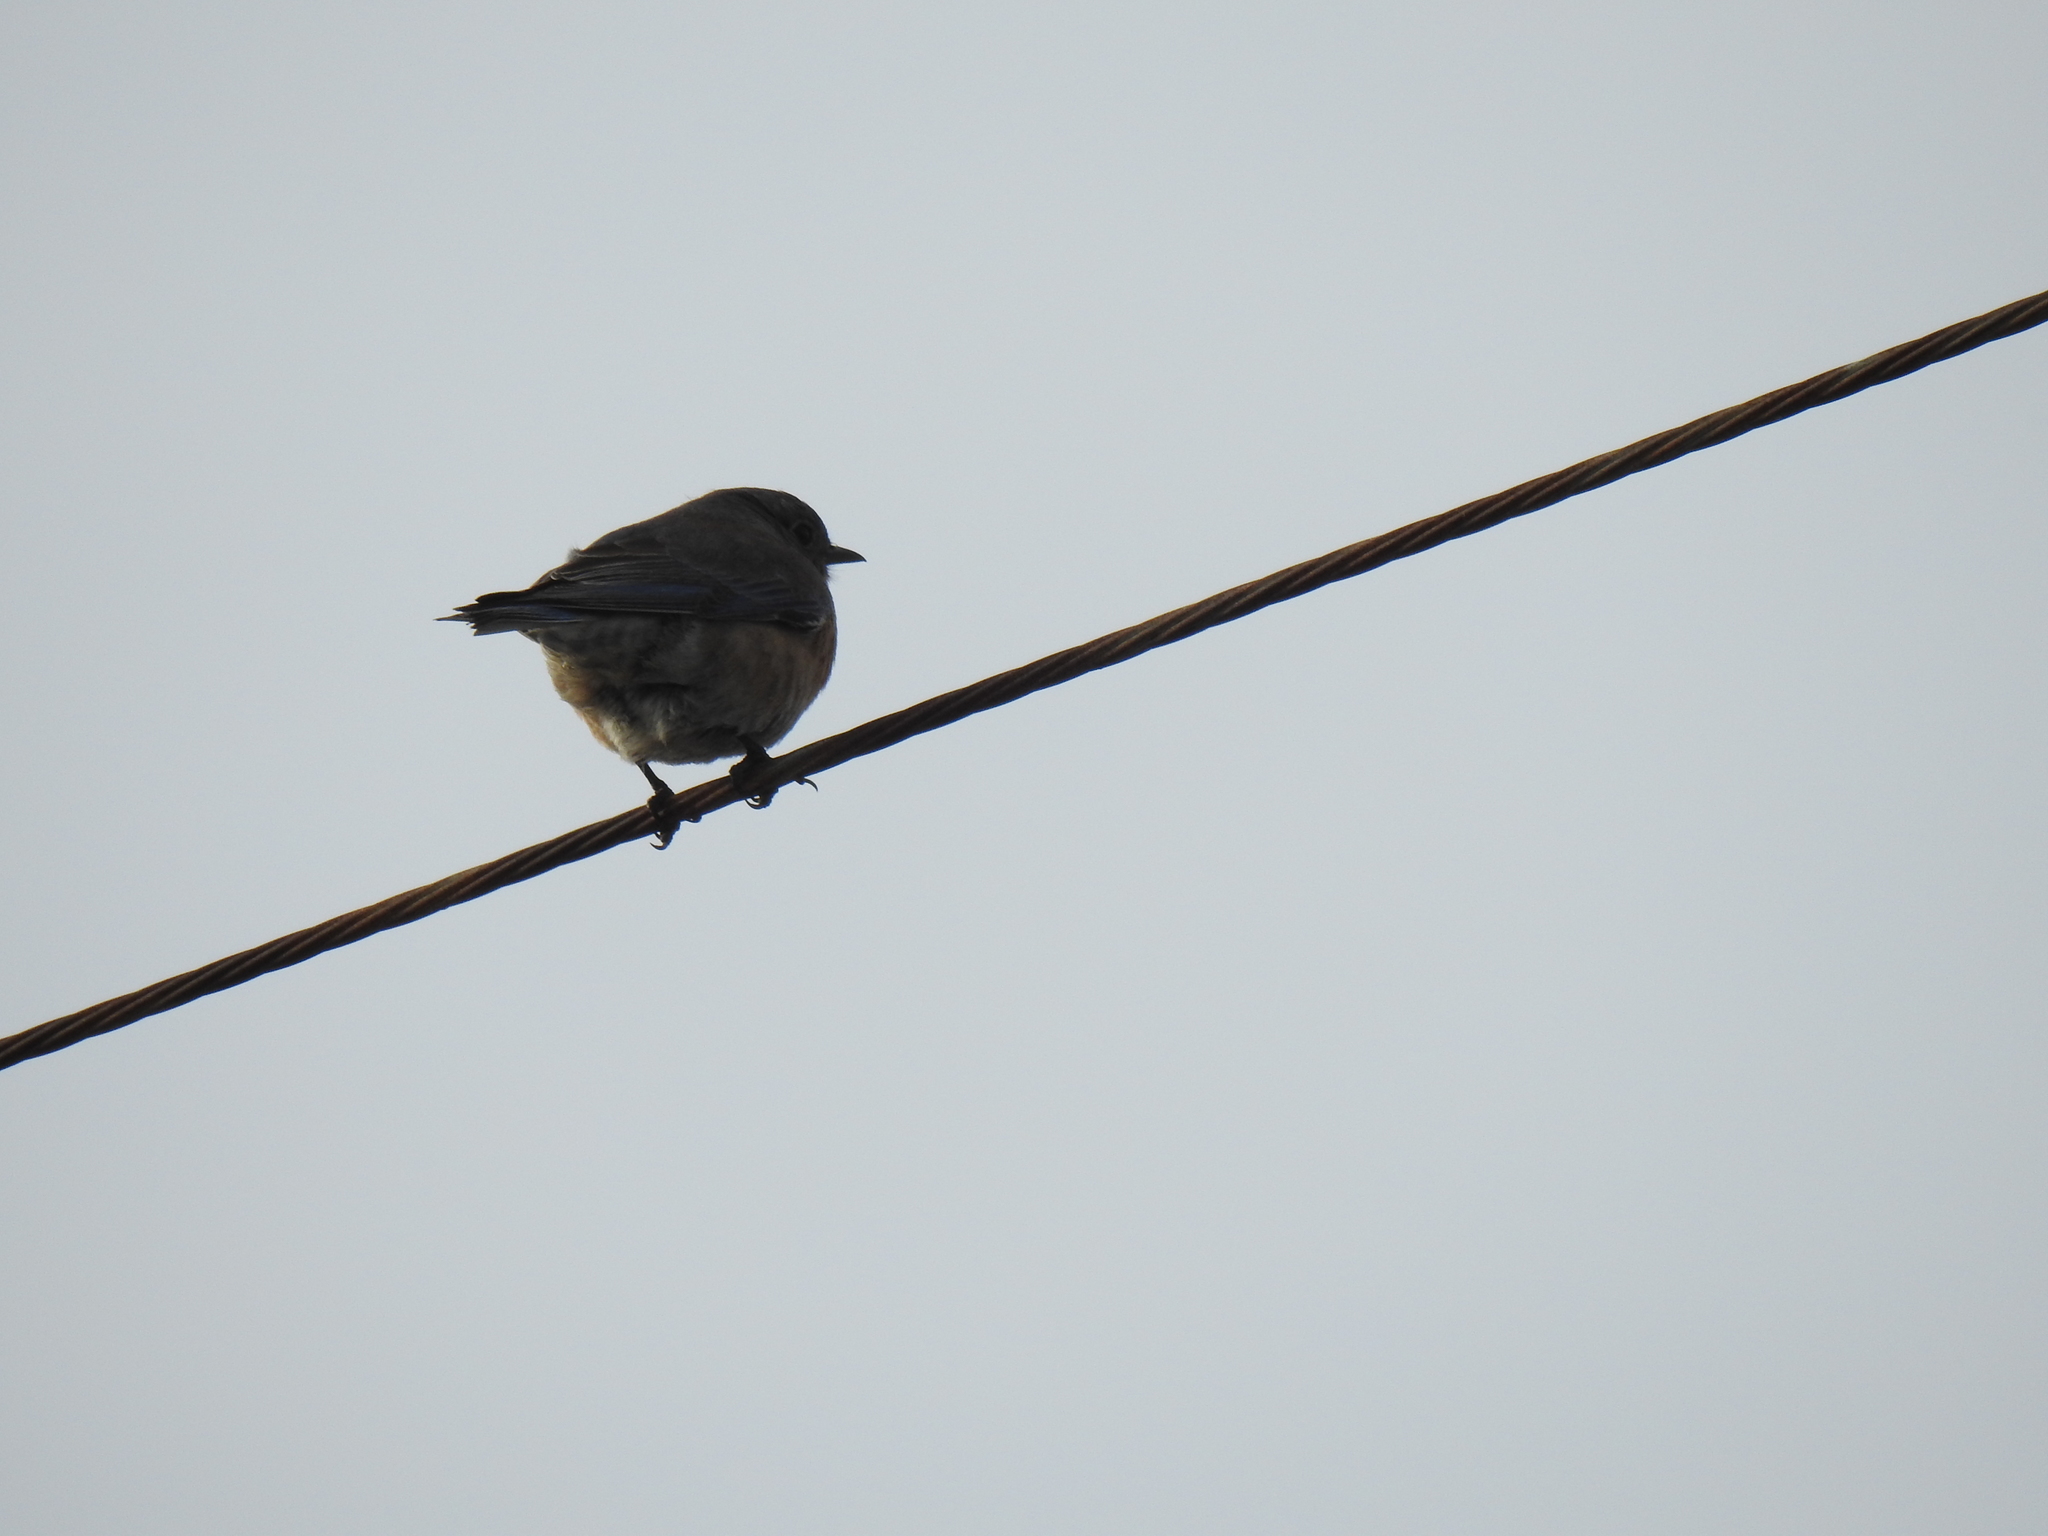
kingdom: Animalia
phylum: Chordata
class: Aves
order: Passeriformes
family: Turdidae
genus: Sialia
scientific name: Sialia mexicana
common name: Western bluebird
